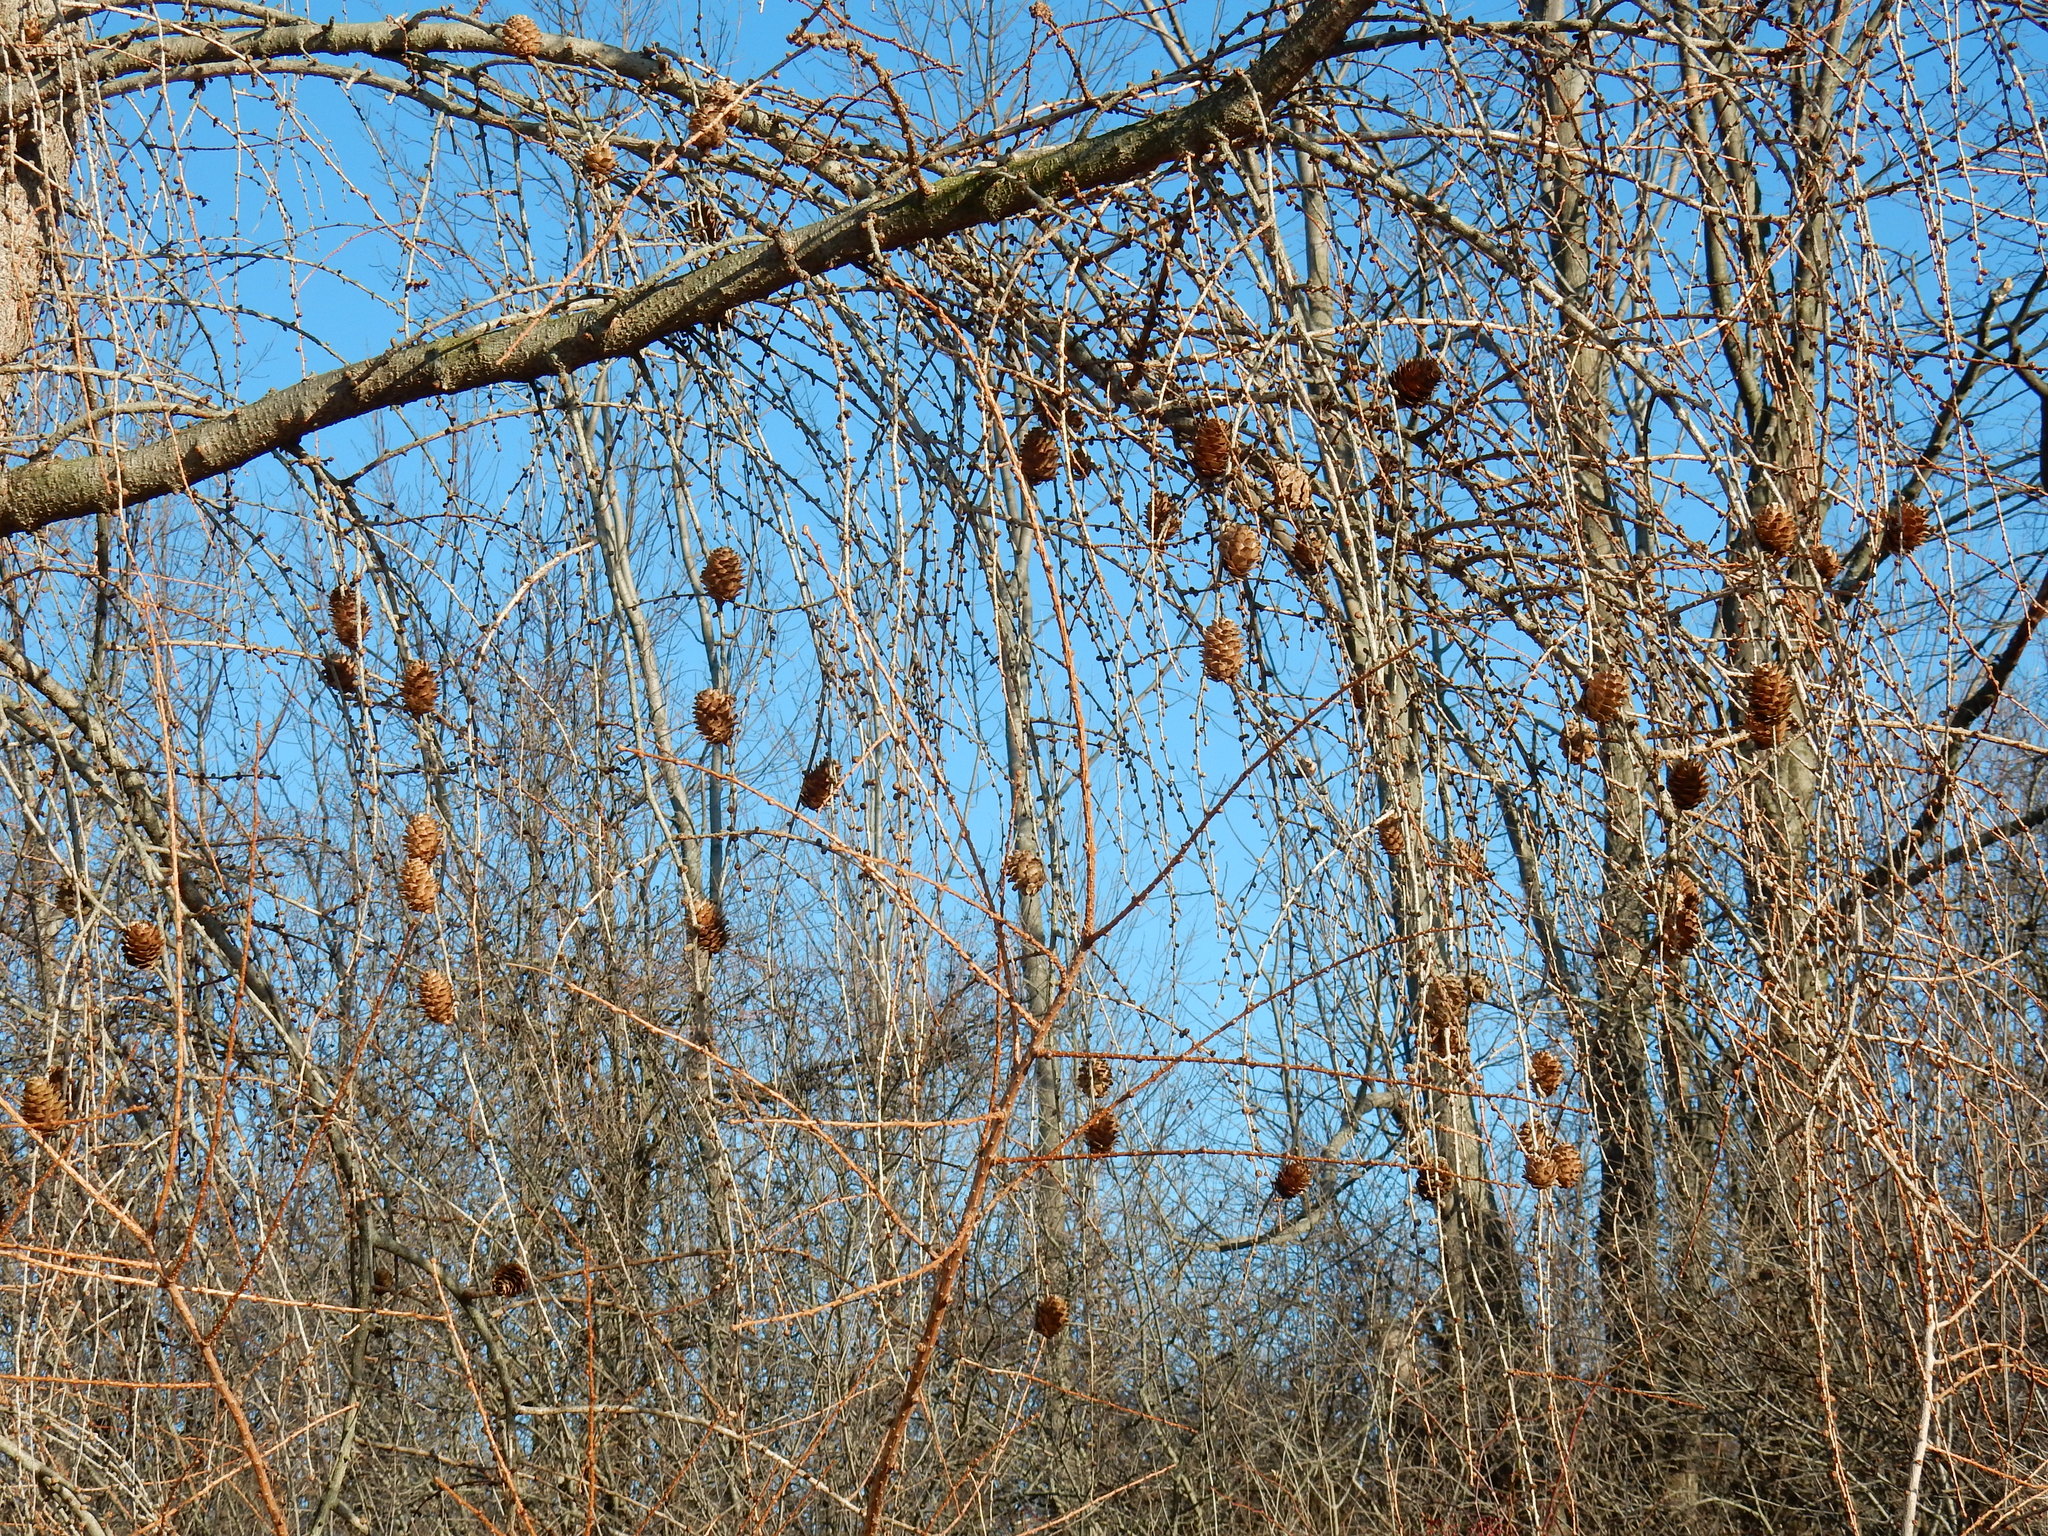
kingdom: Plantae
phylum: Tracheophyta
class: Pinopsida
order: Pinales
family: Pinaceae
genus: Larix
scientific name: Larix decidua
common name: European larch
